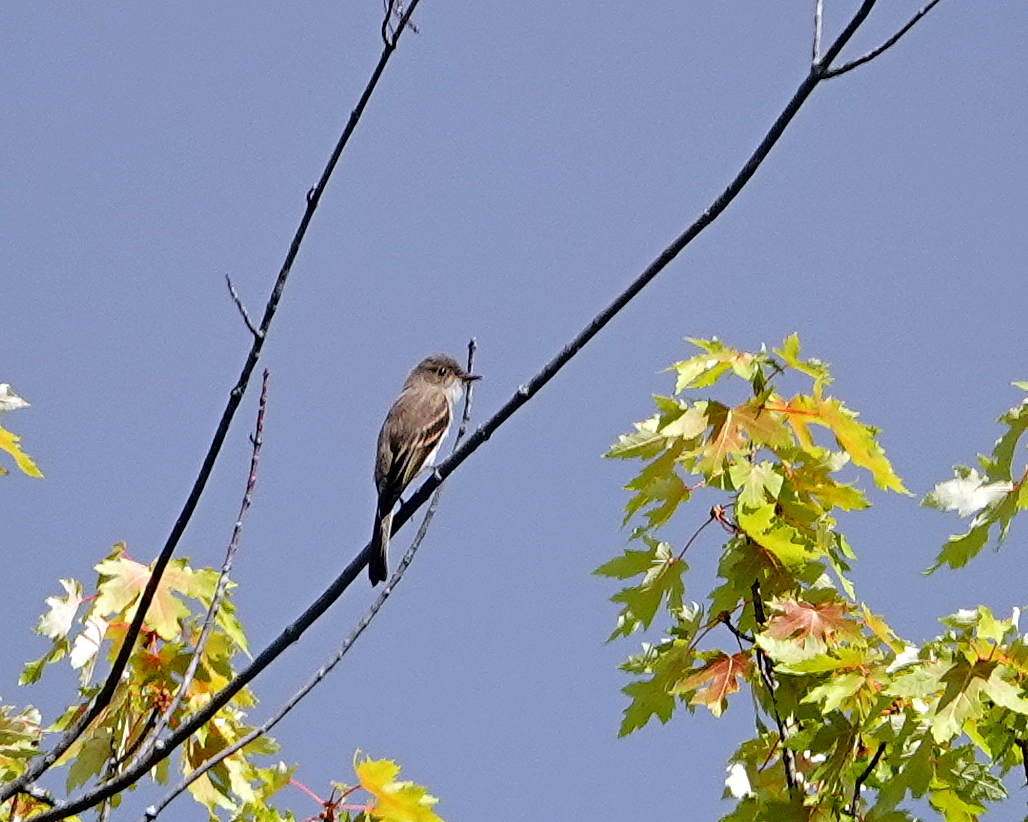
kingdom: Animalia
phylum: Chordata
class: Aves
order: Passeriformes
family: Tyrannidae
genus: Sayornis
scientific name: Sayornis phoebe
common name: Eastern phoebe
